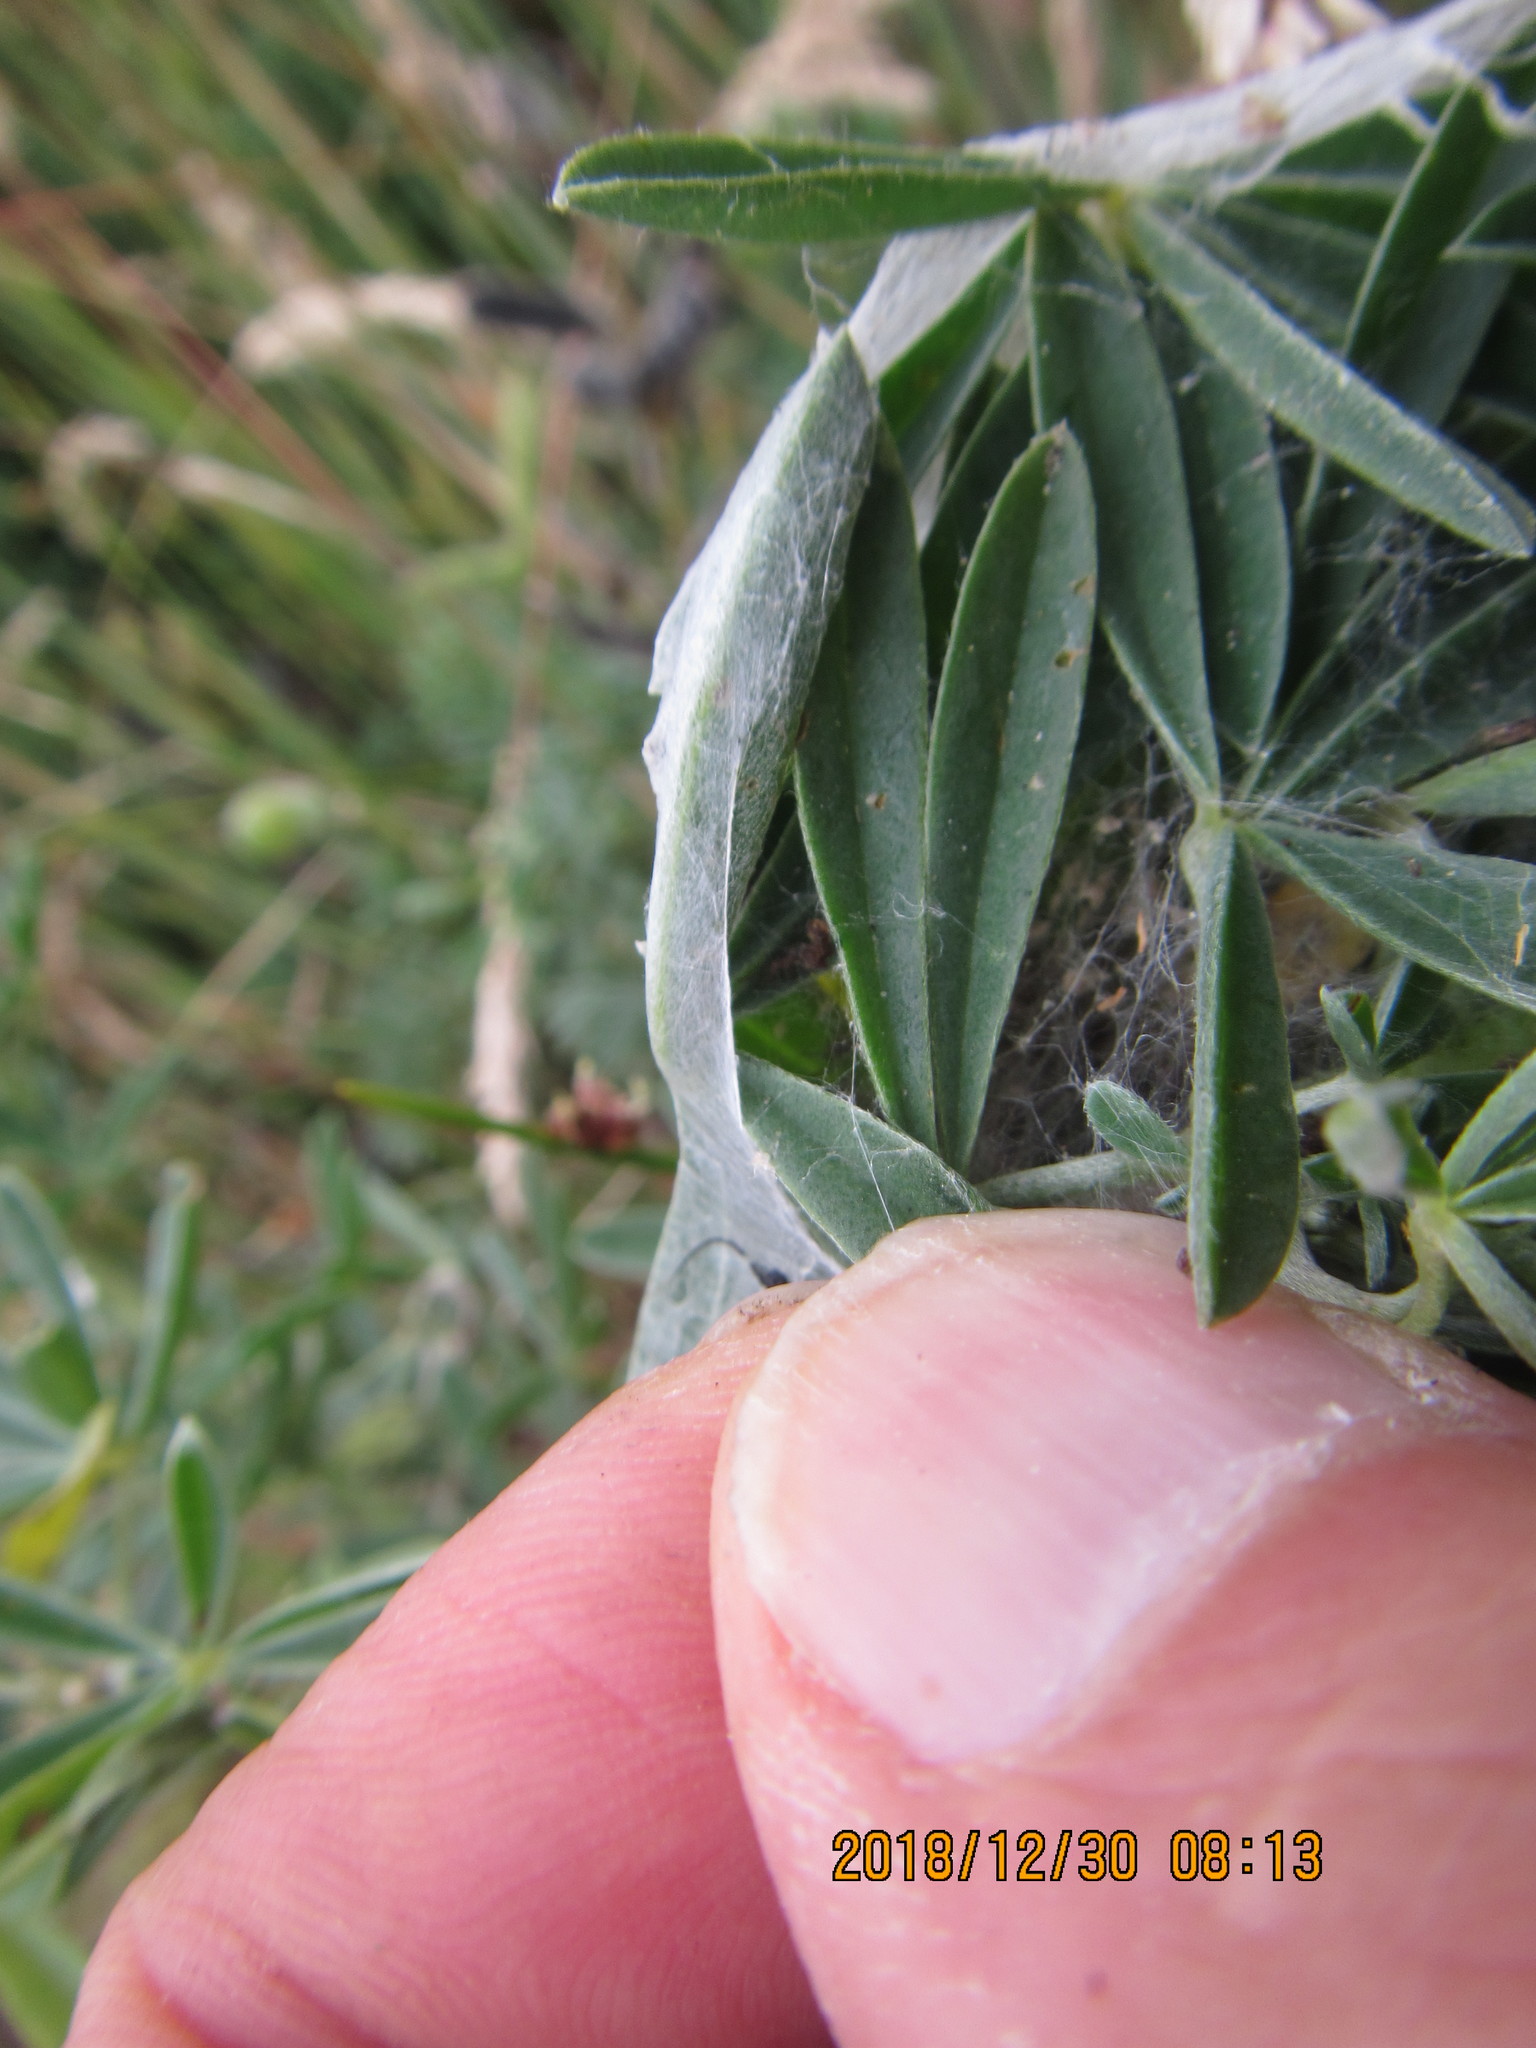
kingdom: Animalia
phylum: Arthropoda
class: Arachnida
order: Araneae
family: Pisauridae
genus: Dolomedes
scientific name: Dolomedes minor
